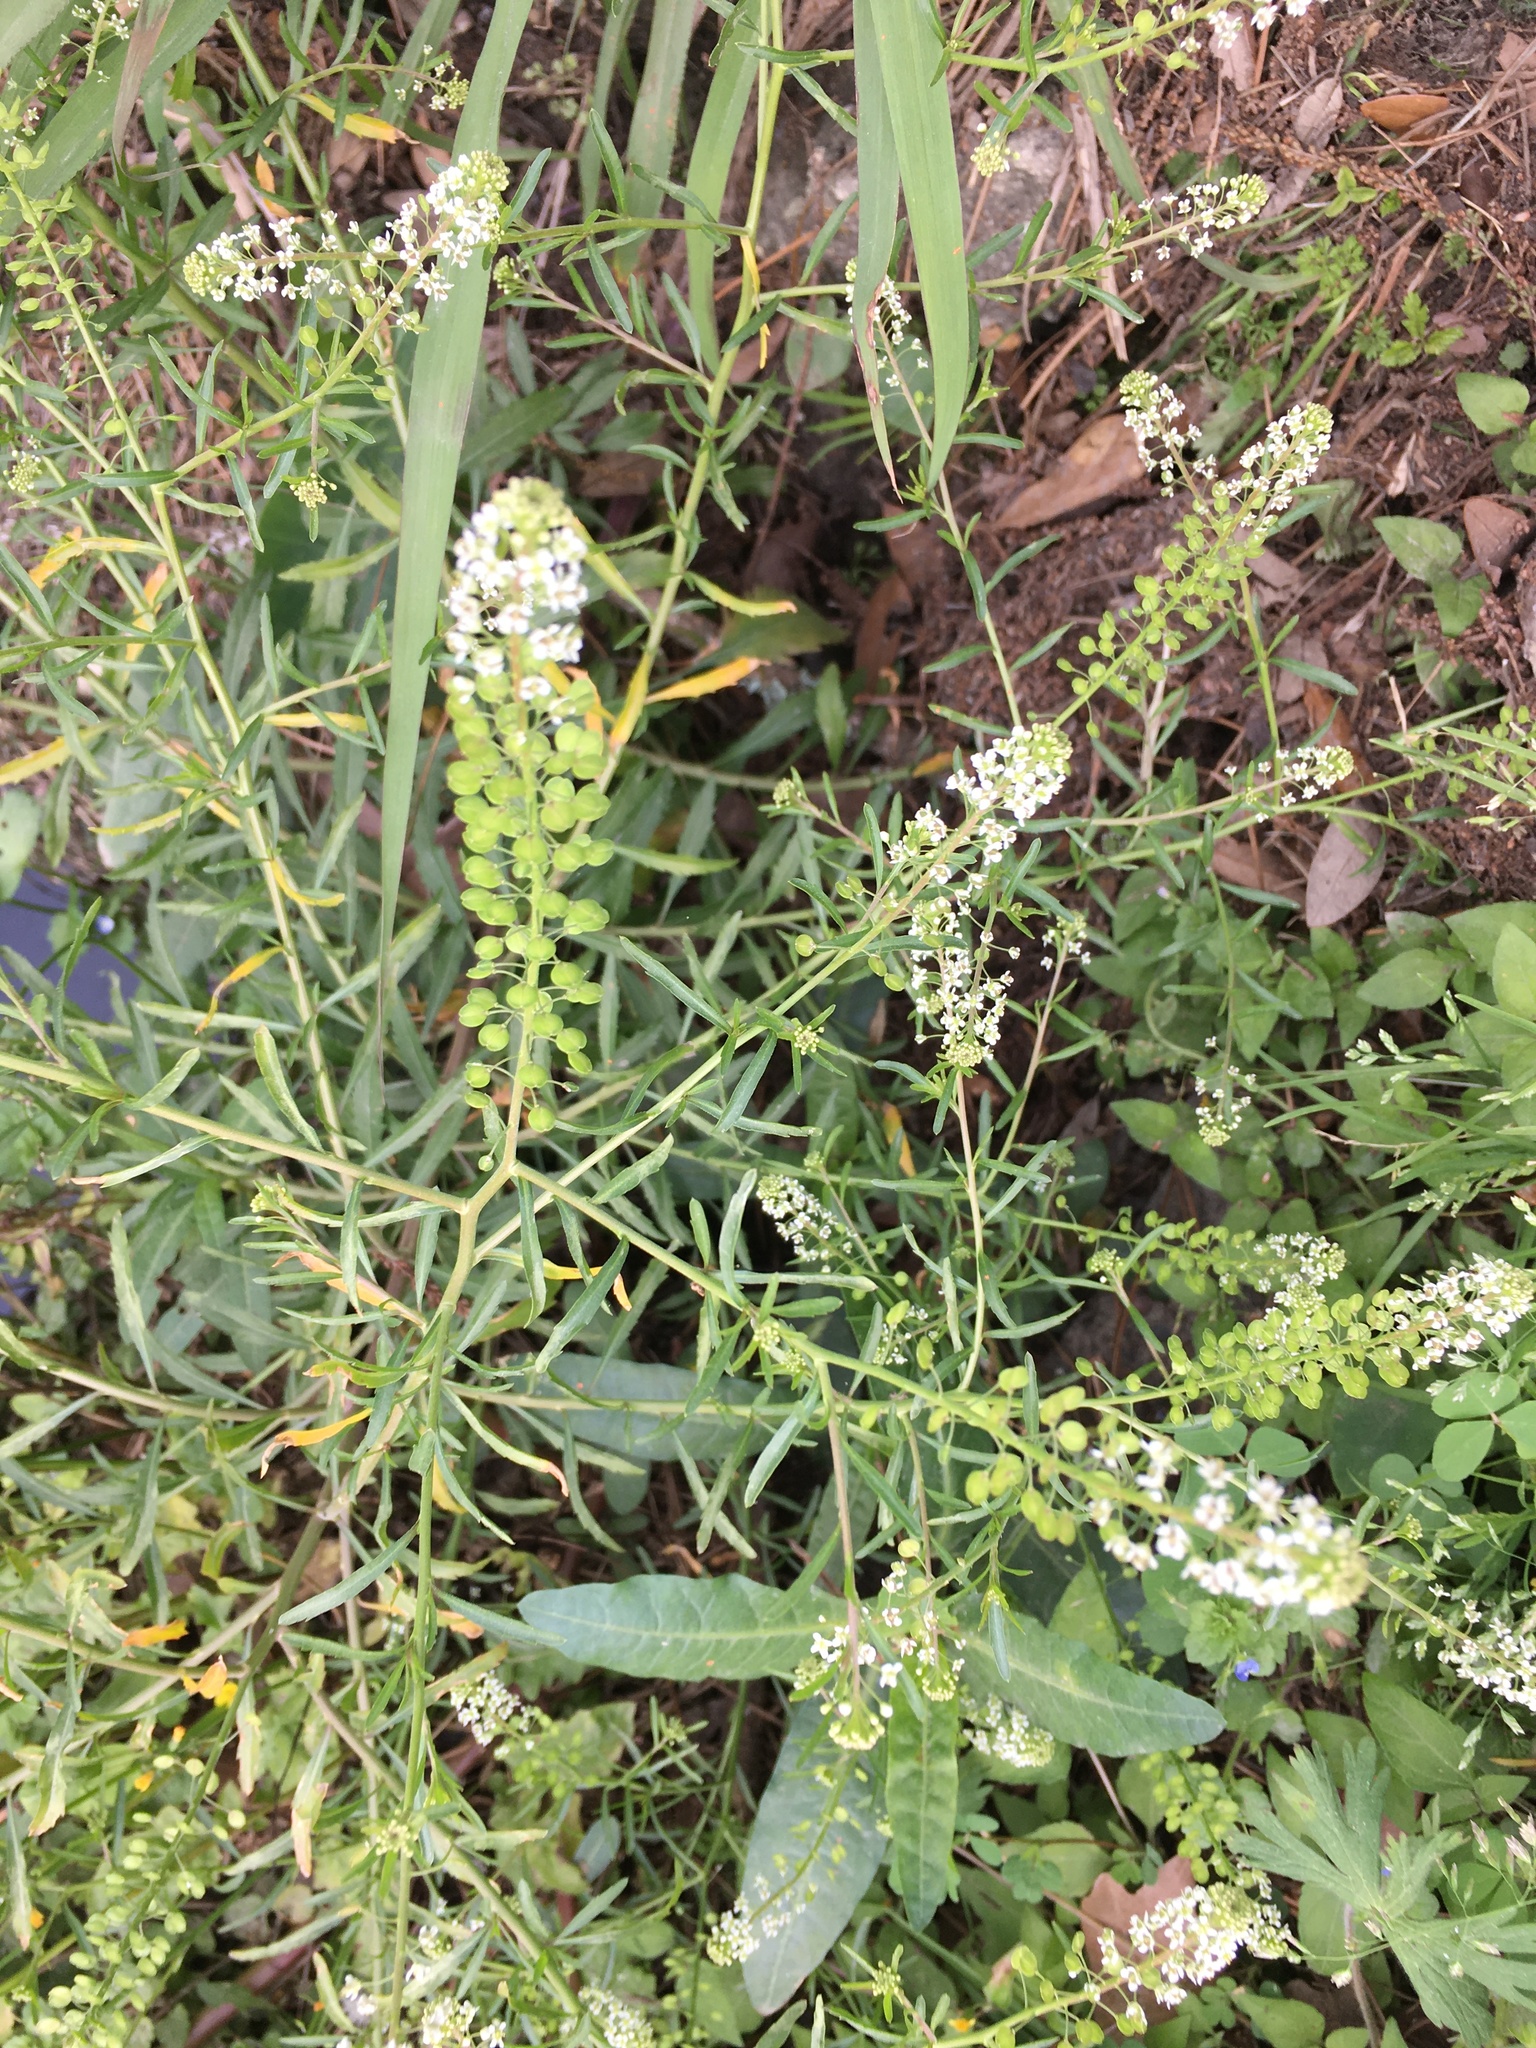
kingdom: Plantae
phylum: Tracheophyta
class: Magnoliopsida
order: Brassicales
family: Brassicaceae
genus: Lepidium
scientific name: Lepidium virginicum
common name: Least pepperwort
